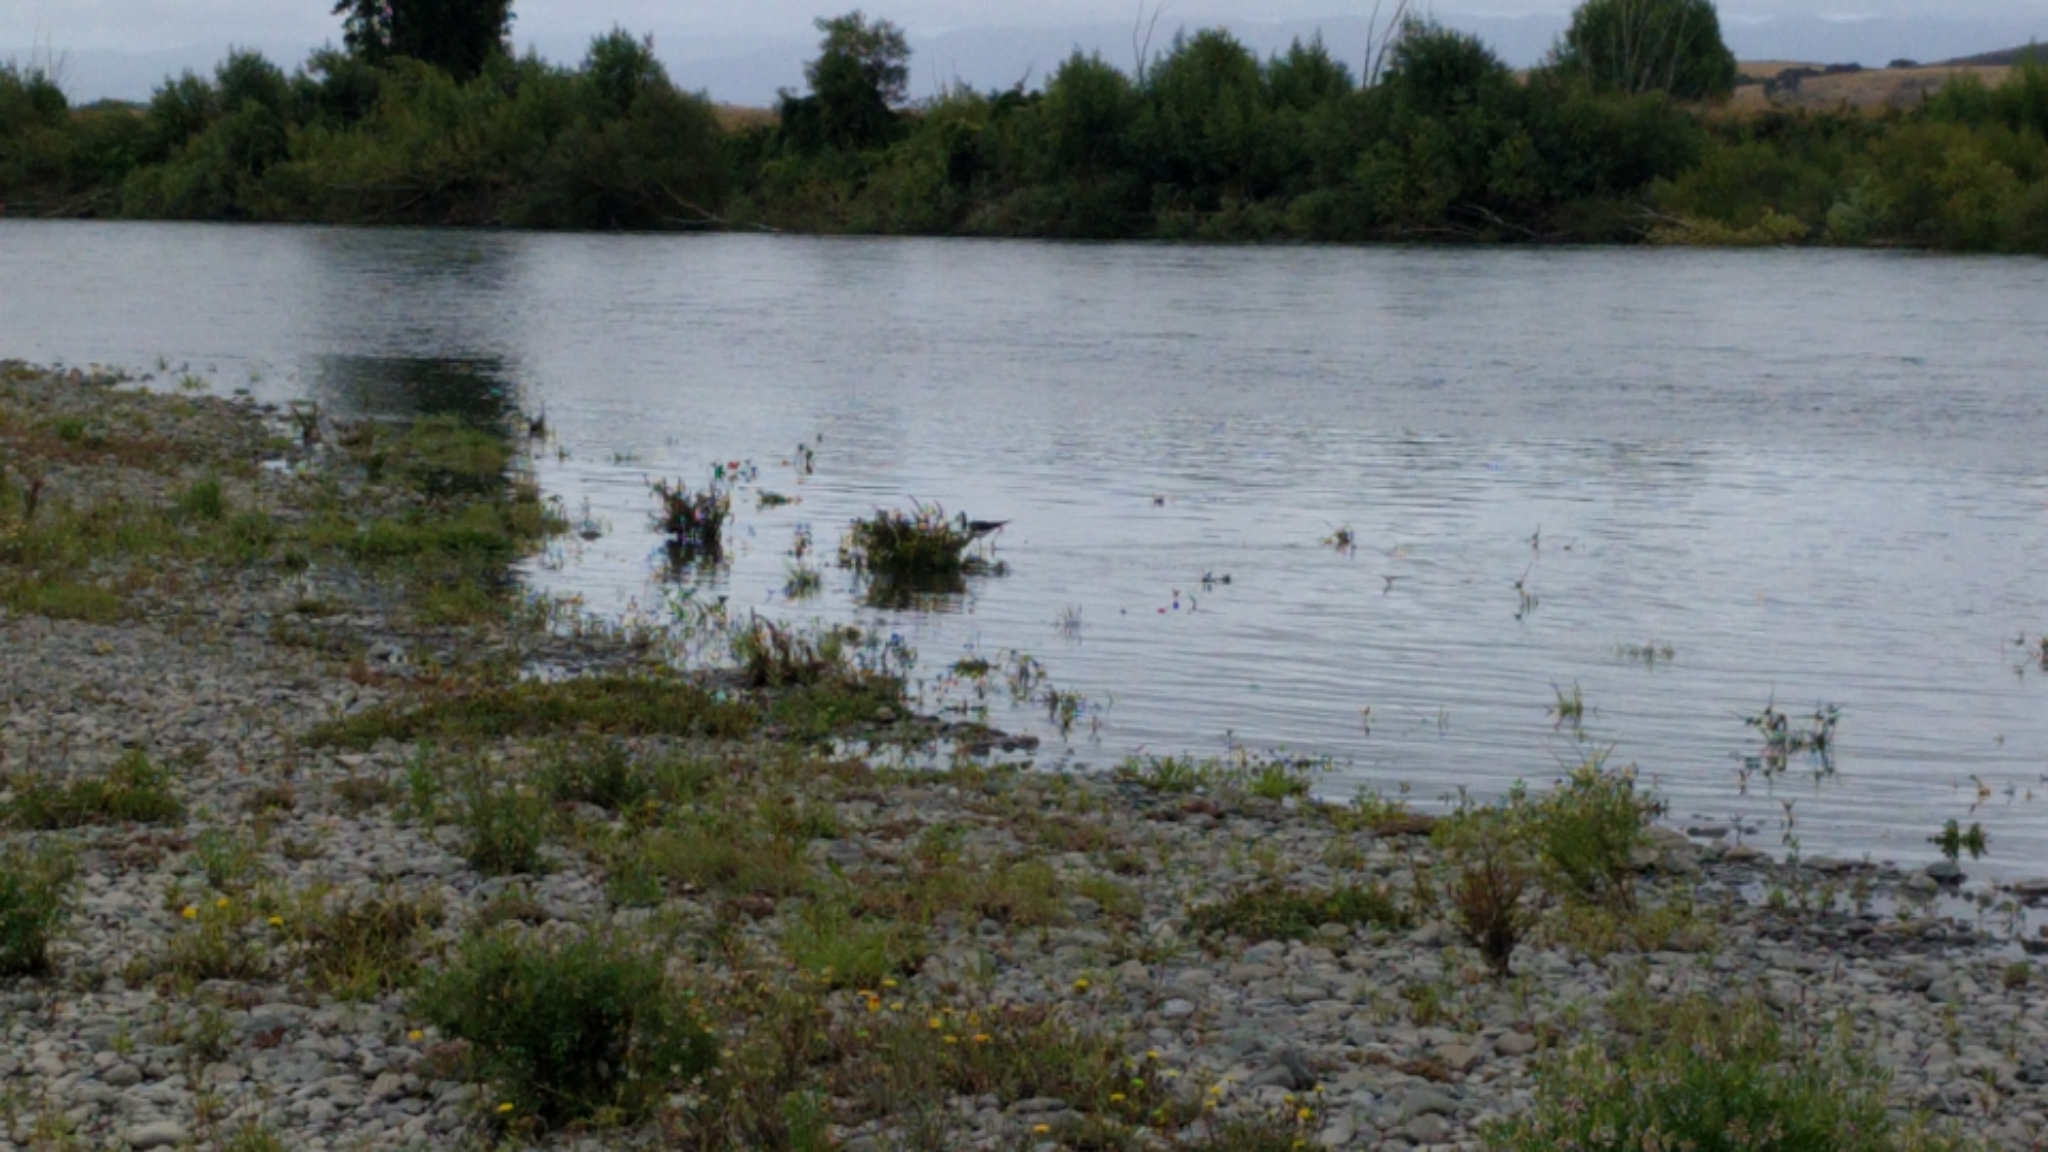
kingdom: Animalia
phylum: Chordata
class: Aves
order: Charadriiformes
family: Recurvirostridae
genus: Himantopus
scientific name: Himantopus leucocephalus
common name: White-headed stilt
